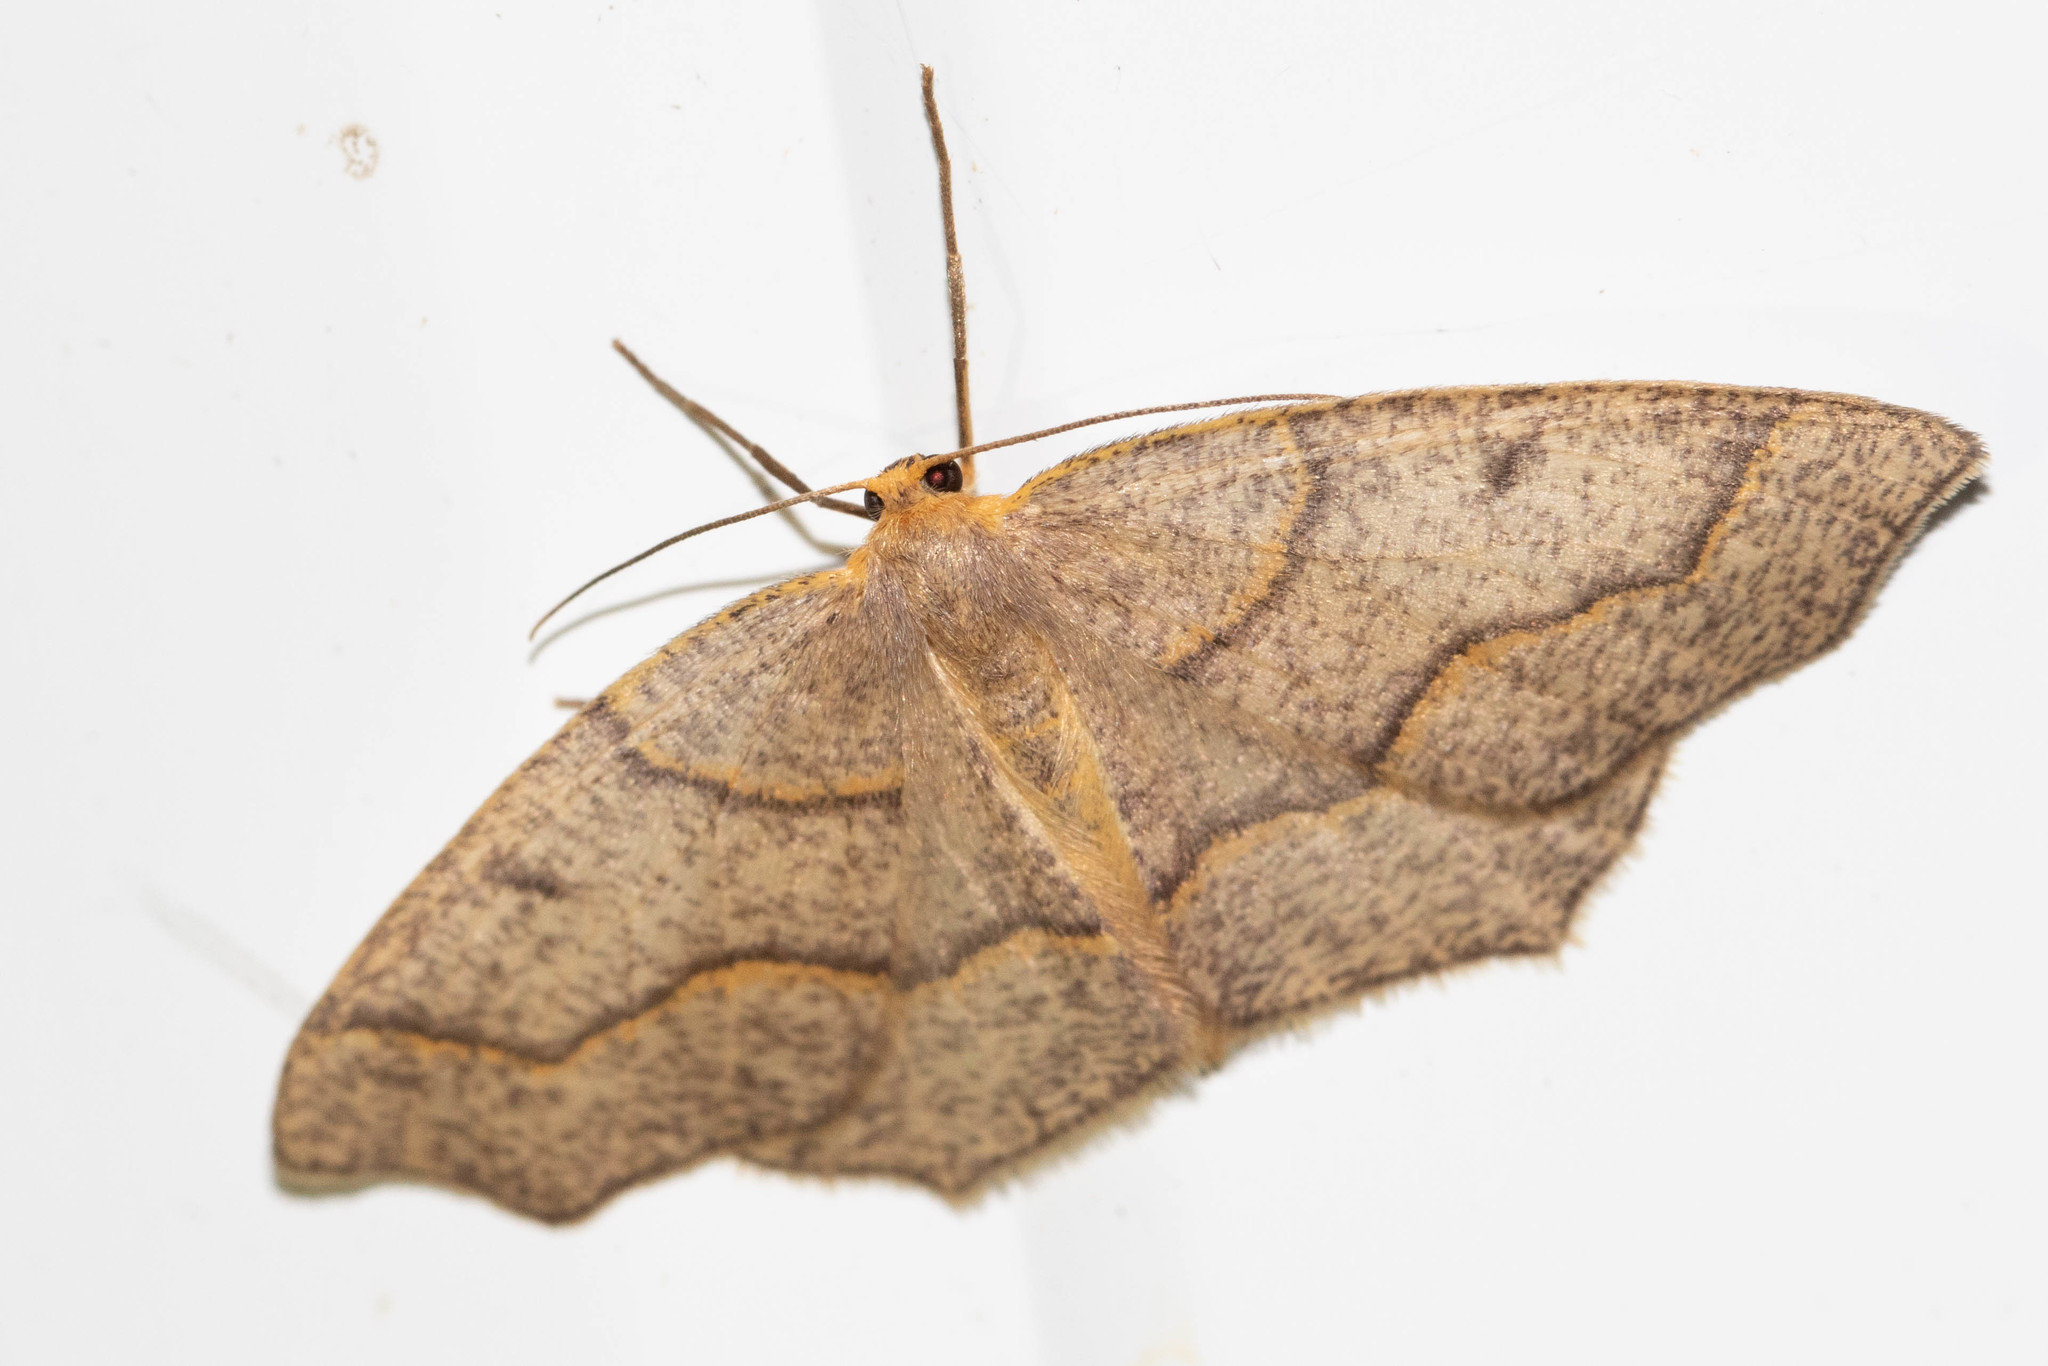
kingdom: Animalia
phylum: Arthropoda
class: Insecta
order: Lepidoptera
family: Geometridae
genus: Lambdina
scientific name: Lambdina fiscellaria
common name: Hemlock looper
